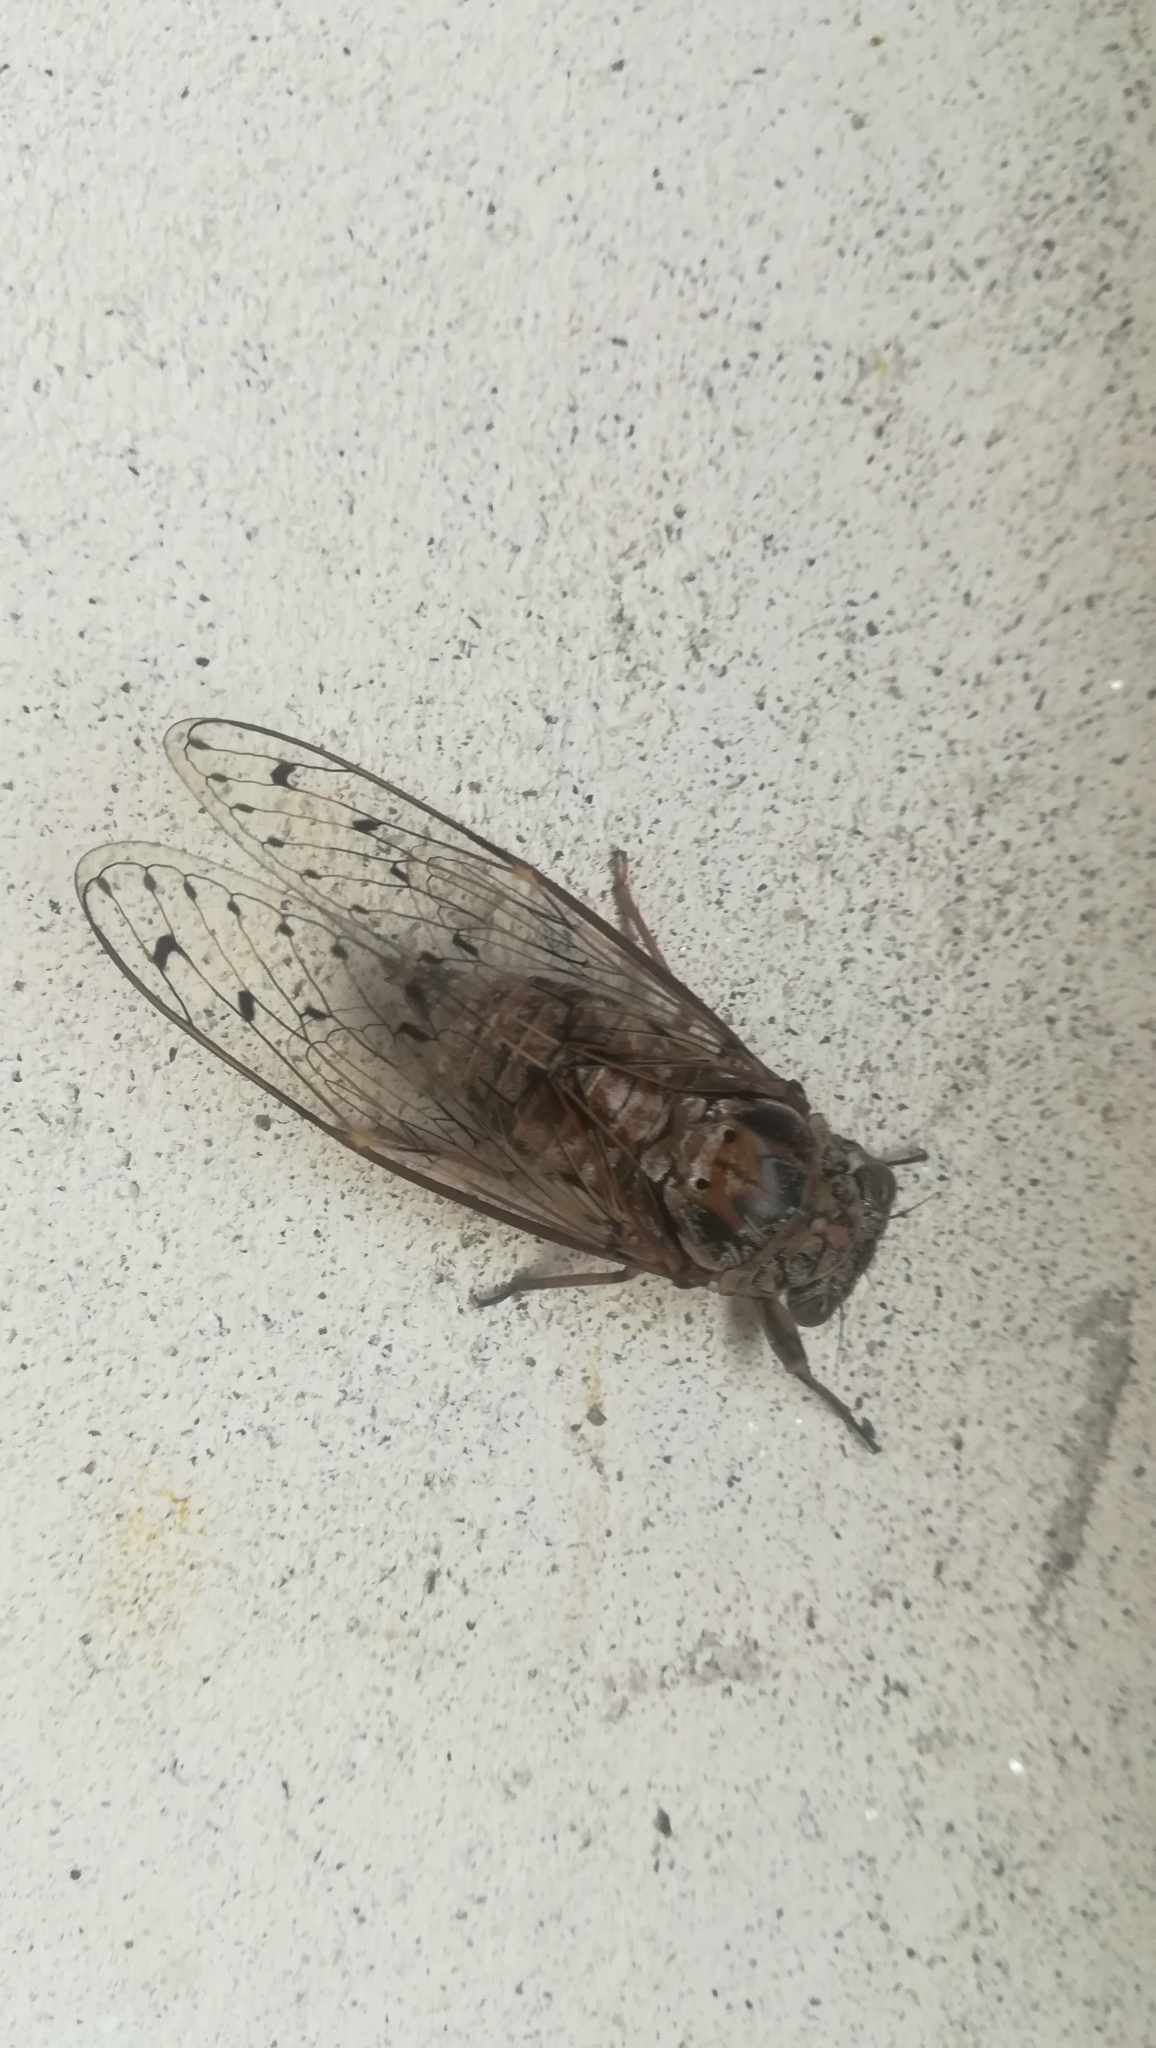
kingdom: Animalia
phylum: Arthropoda
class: Insecta
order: Hemiptera
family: Cicadidae
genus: Cicada
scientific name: Cicada orni
